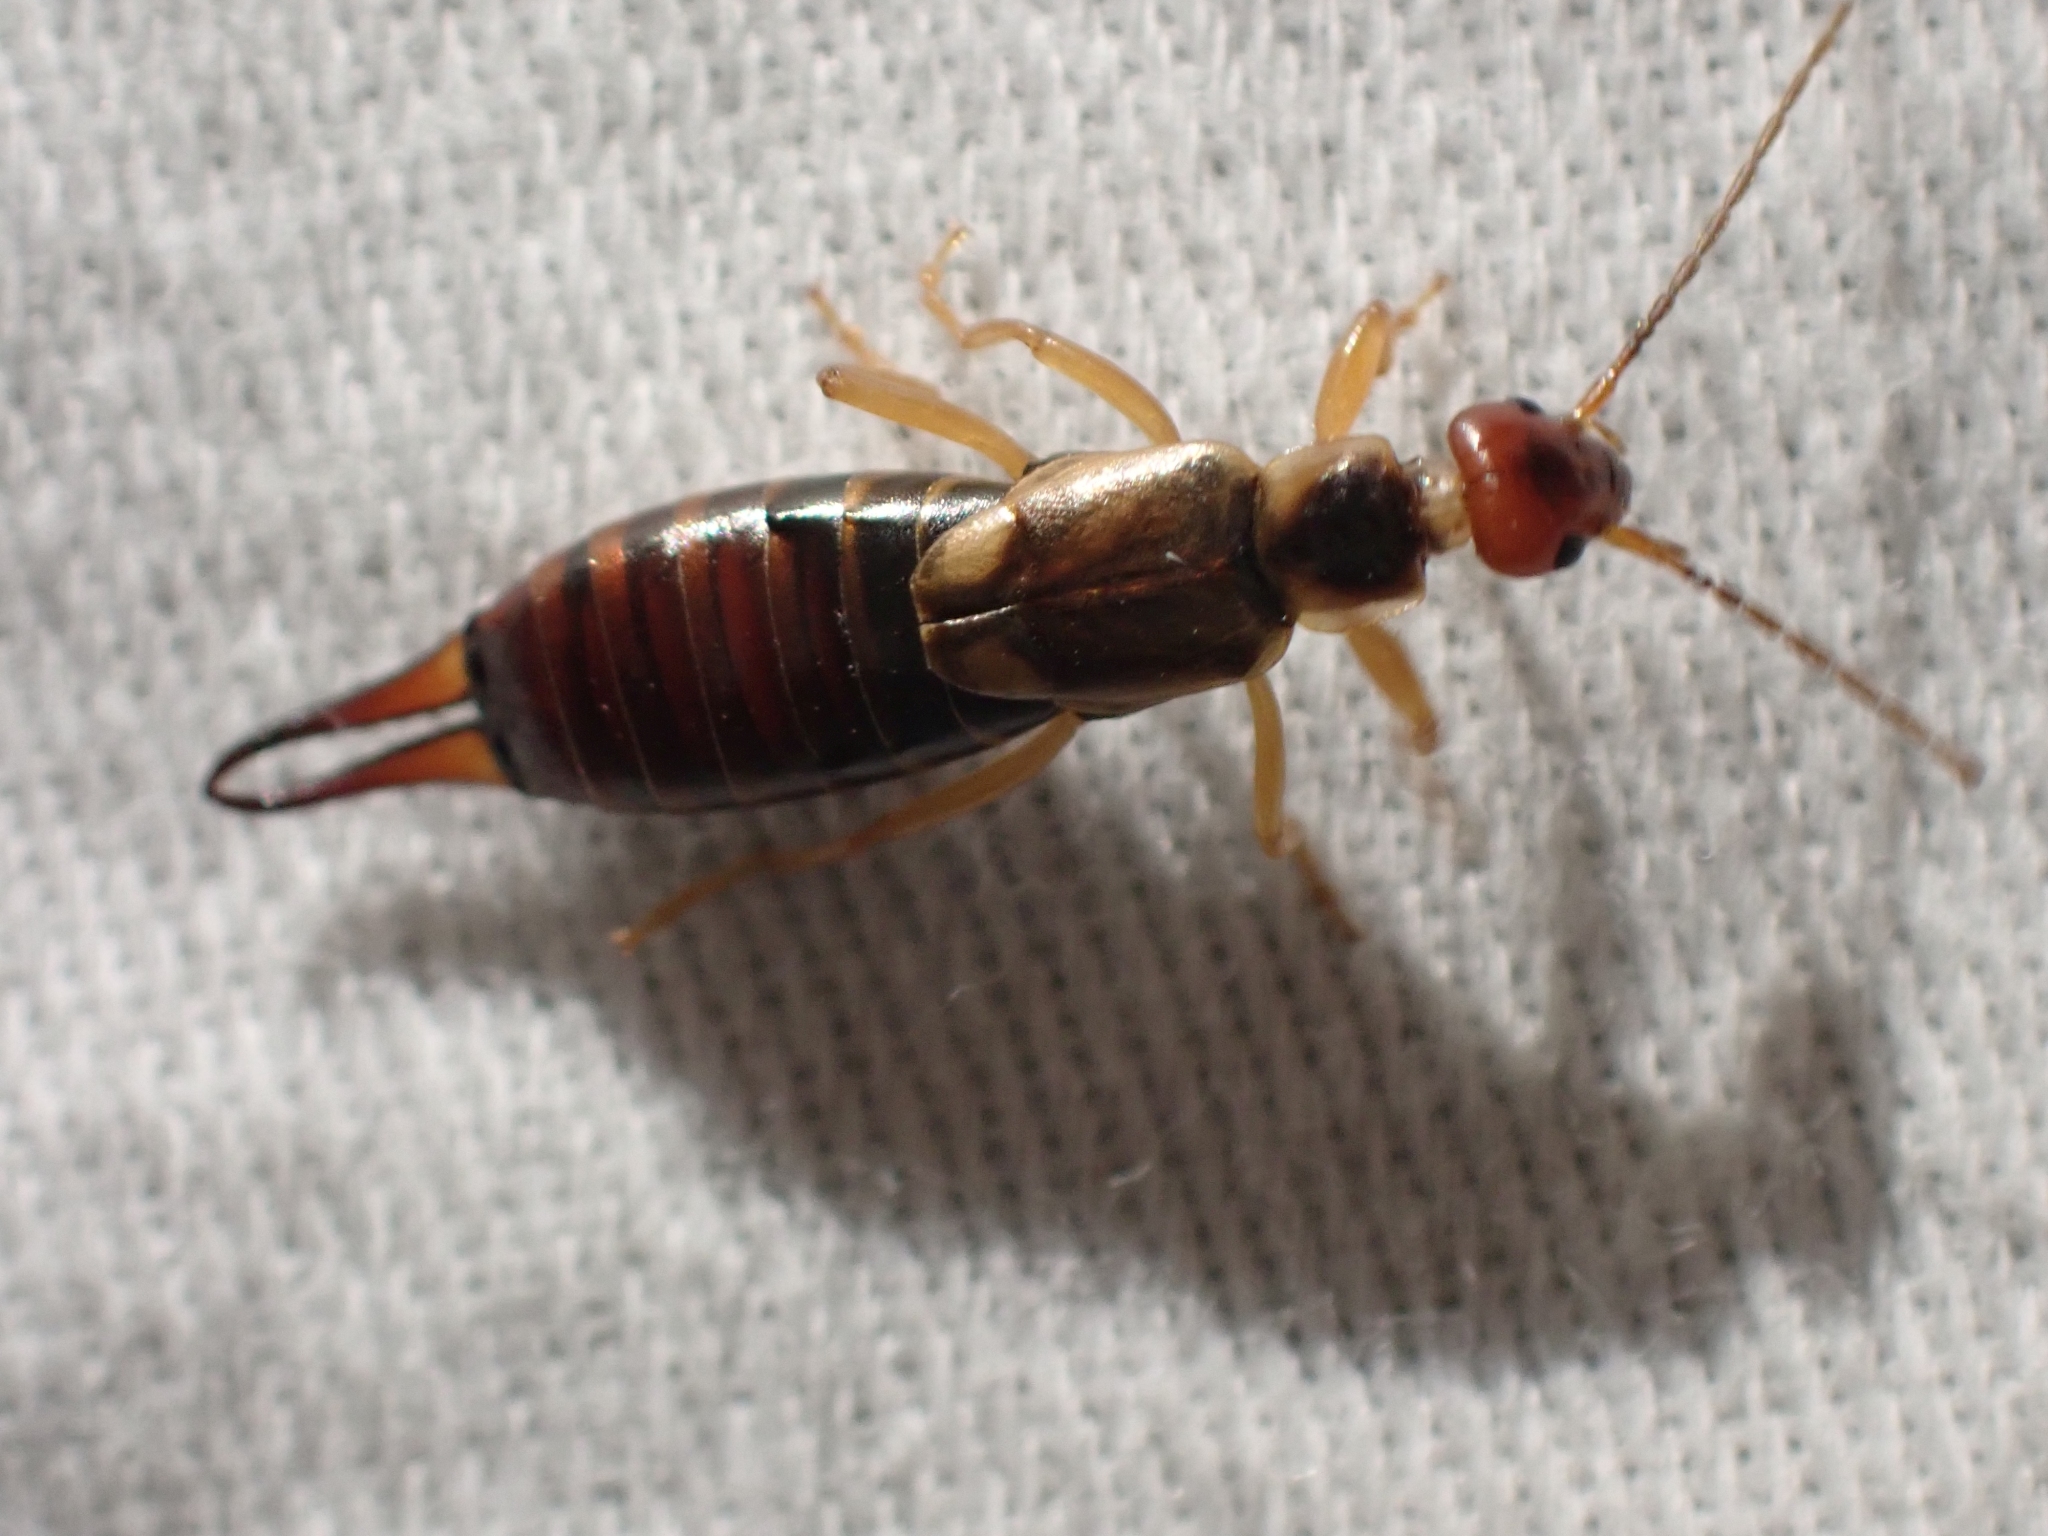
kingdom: Animalia
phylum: Arthropoda
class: Insecta
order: Dermaptera
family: Forficulidae
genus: Forficula
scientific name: Forficula
